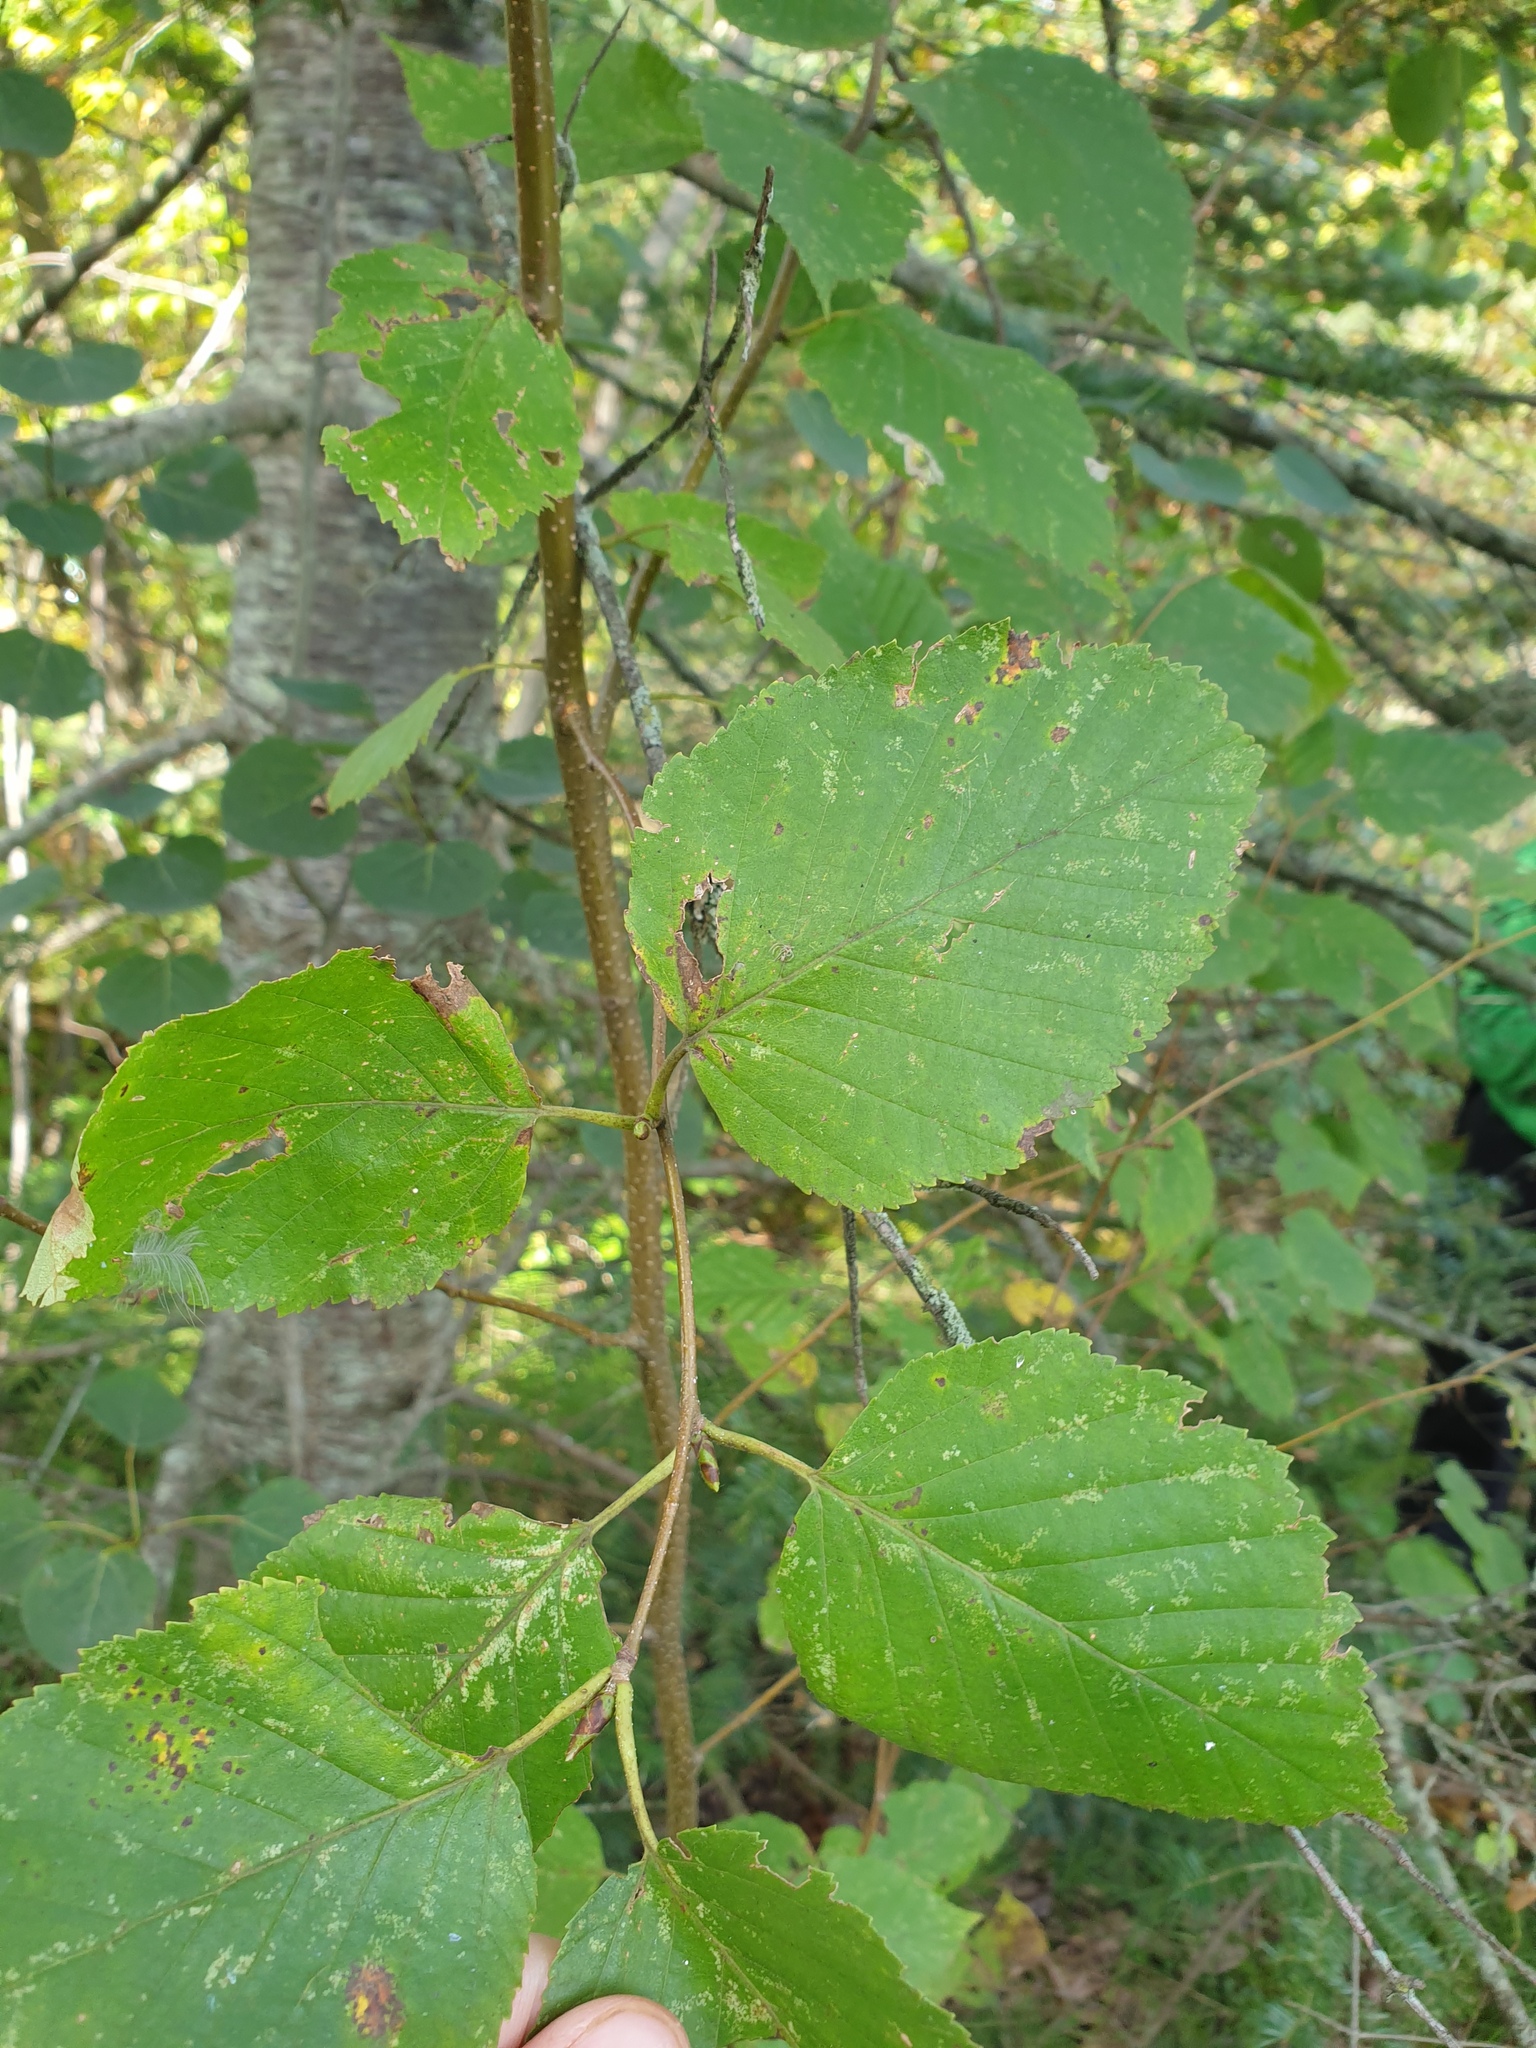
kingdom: Plantae
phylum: Tracheophyta
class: Magnoliopsida
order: Fagales
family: Betulaceae
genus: Betula
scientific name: Betula papyrifera
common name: Paper birch
